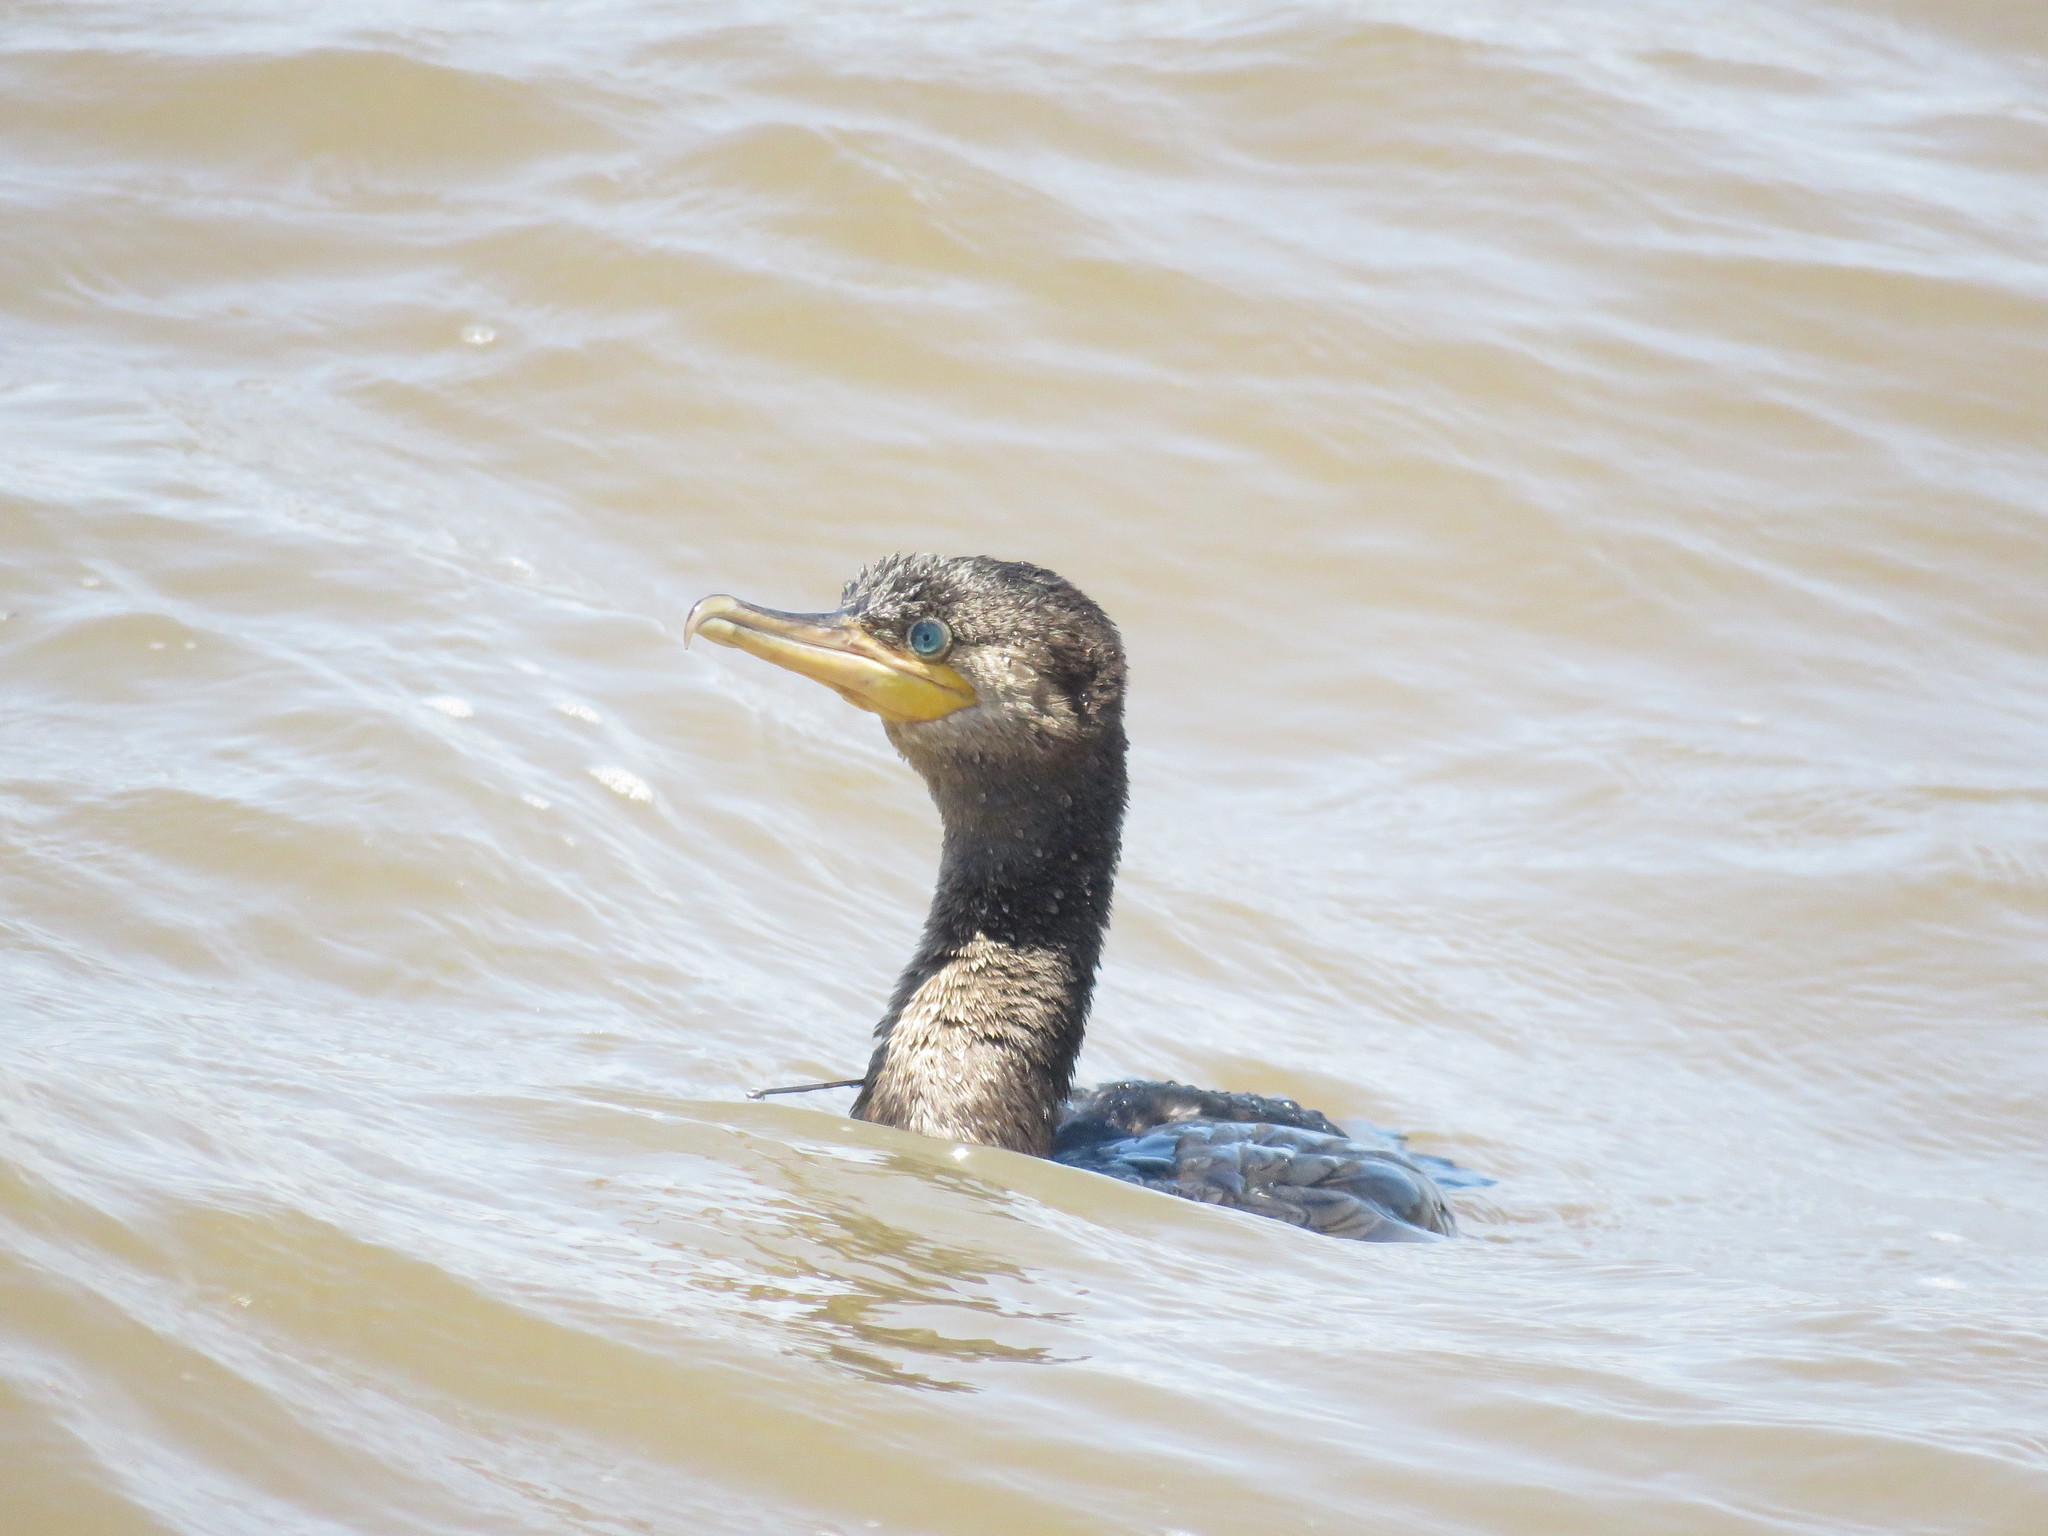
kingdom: Animalia
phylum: Chordata
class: Aves
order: Suliformes
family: Phalacrocoracidae
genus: Phalacrocorax
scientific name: Phalacrocorax brasilianus
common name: Neotropic cormorant
